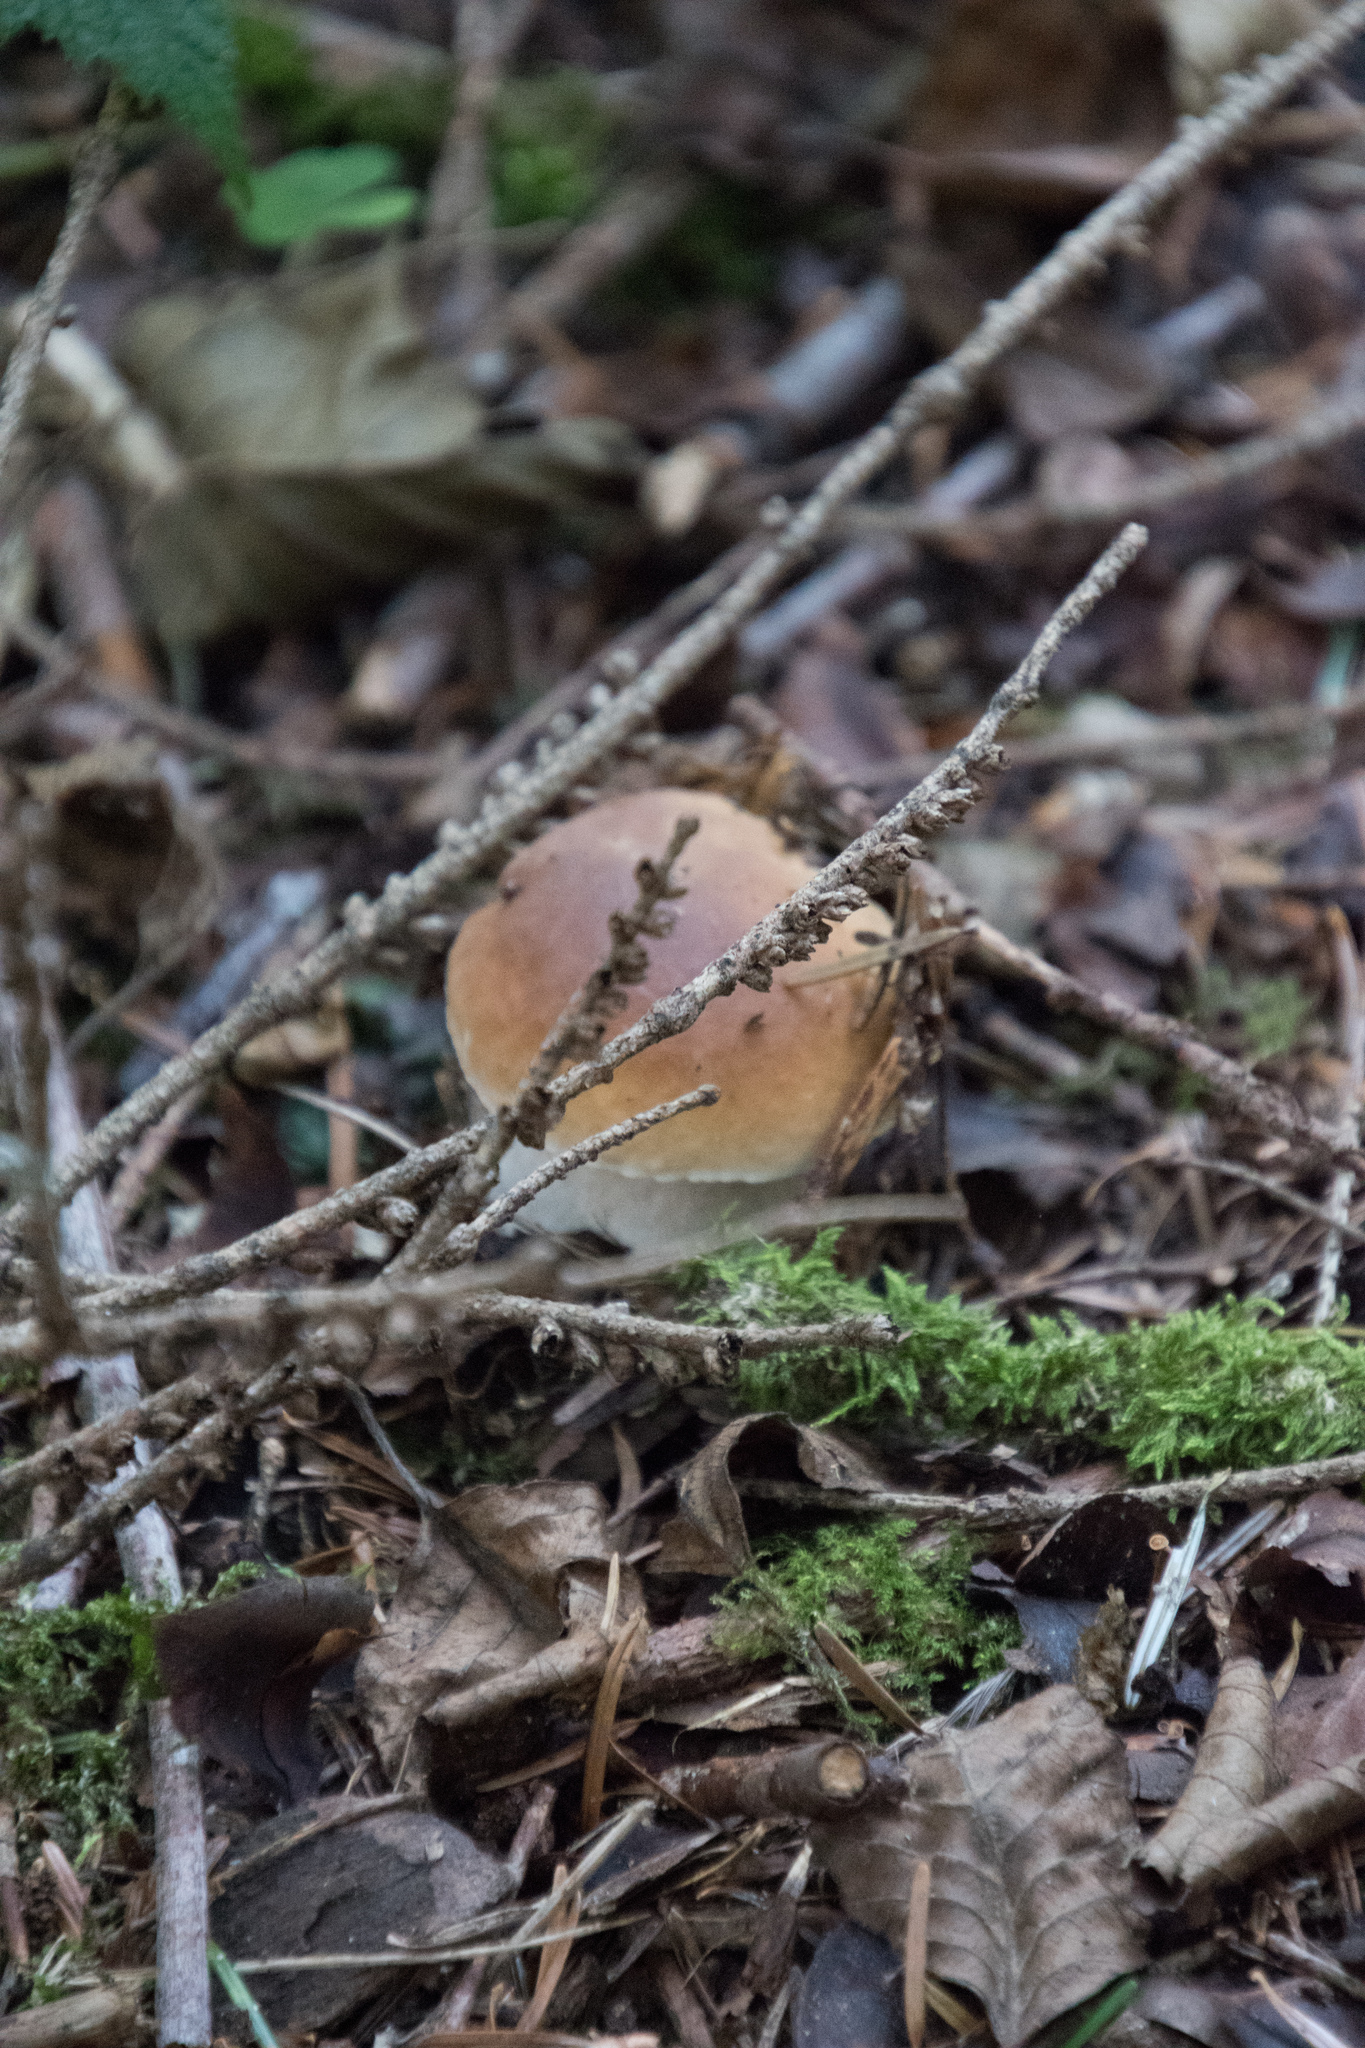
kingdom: Fungi
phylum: Basidiomycota
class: Agaricomycetes
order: Boletales
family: Boletaceae
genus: Boletus
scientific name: Boletus edulis
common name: Cep
